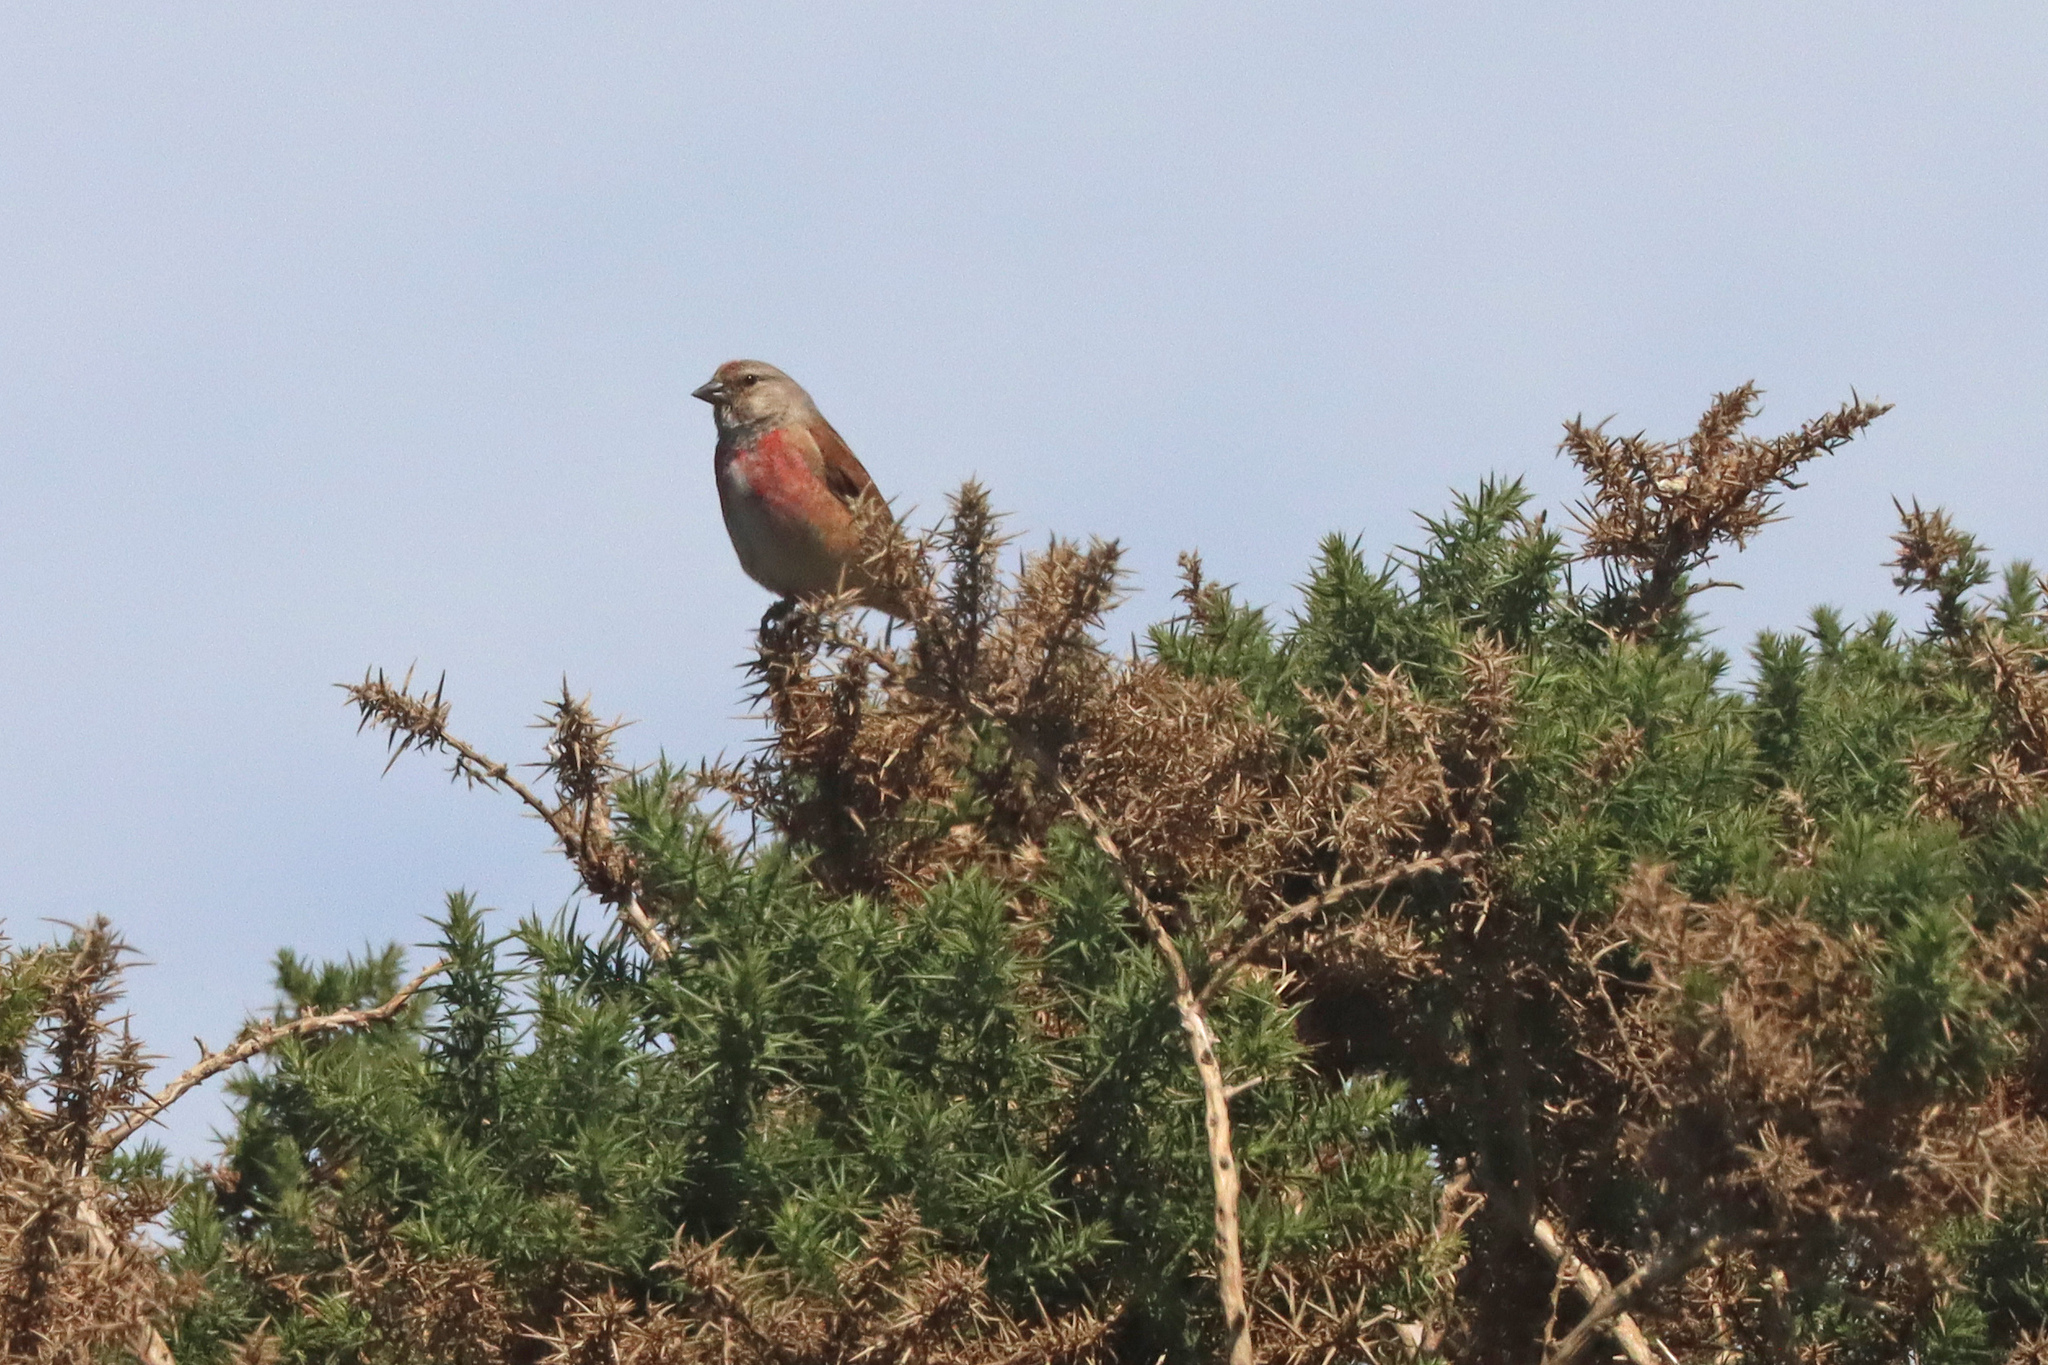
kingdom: Animalia
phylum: Chordata
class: Aves
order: Passeriformes
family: Fringillidae
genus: Linaria
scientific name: Linaria cannabina
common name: Common linnet
